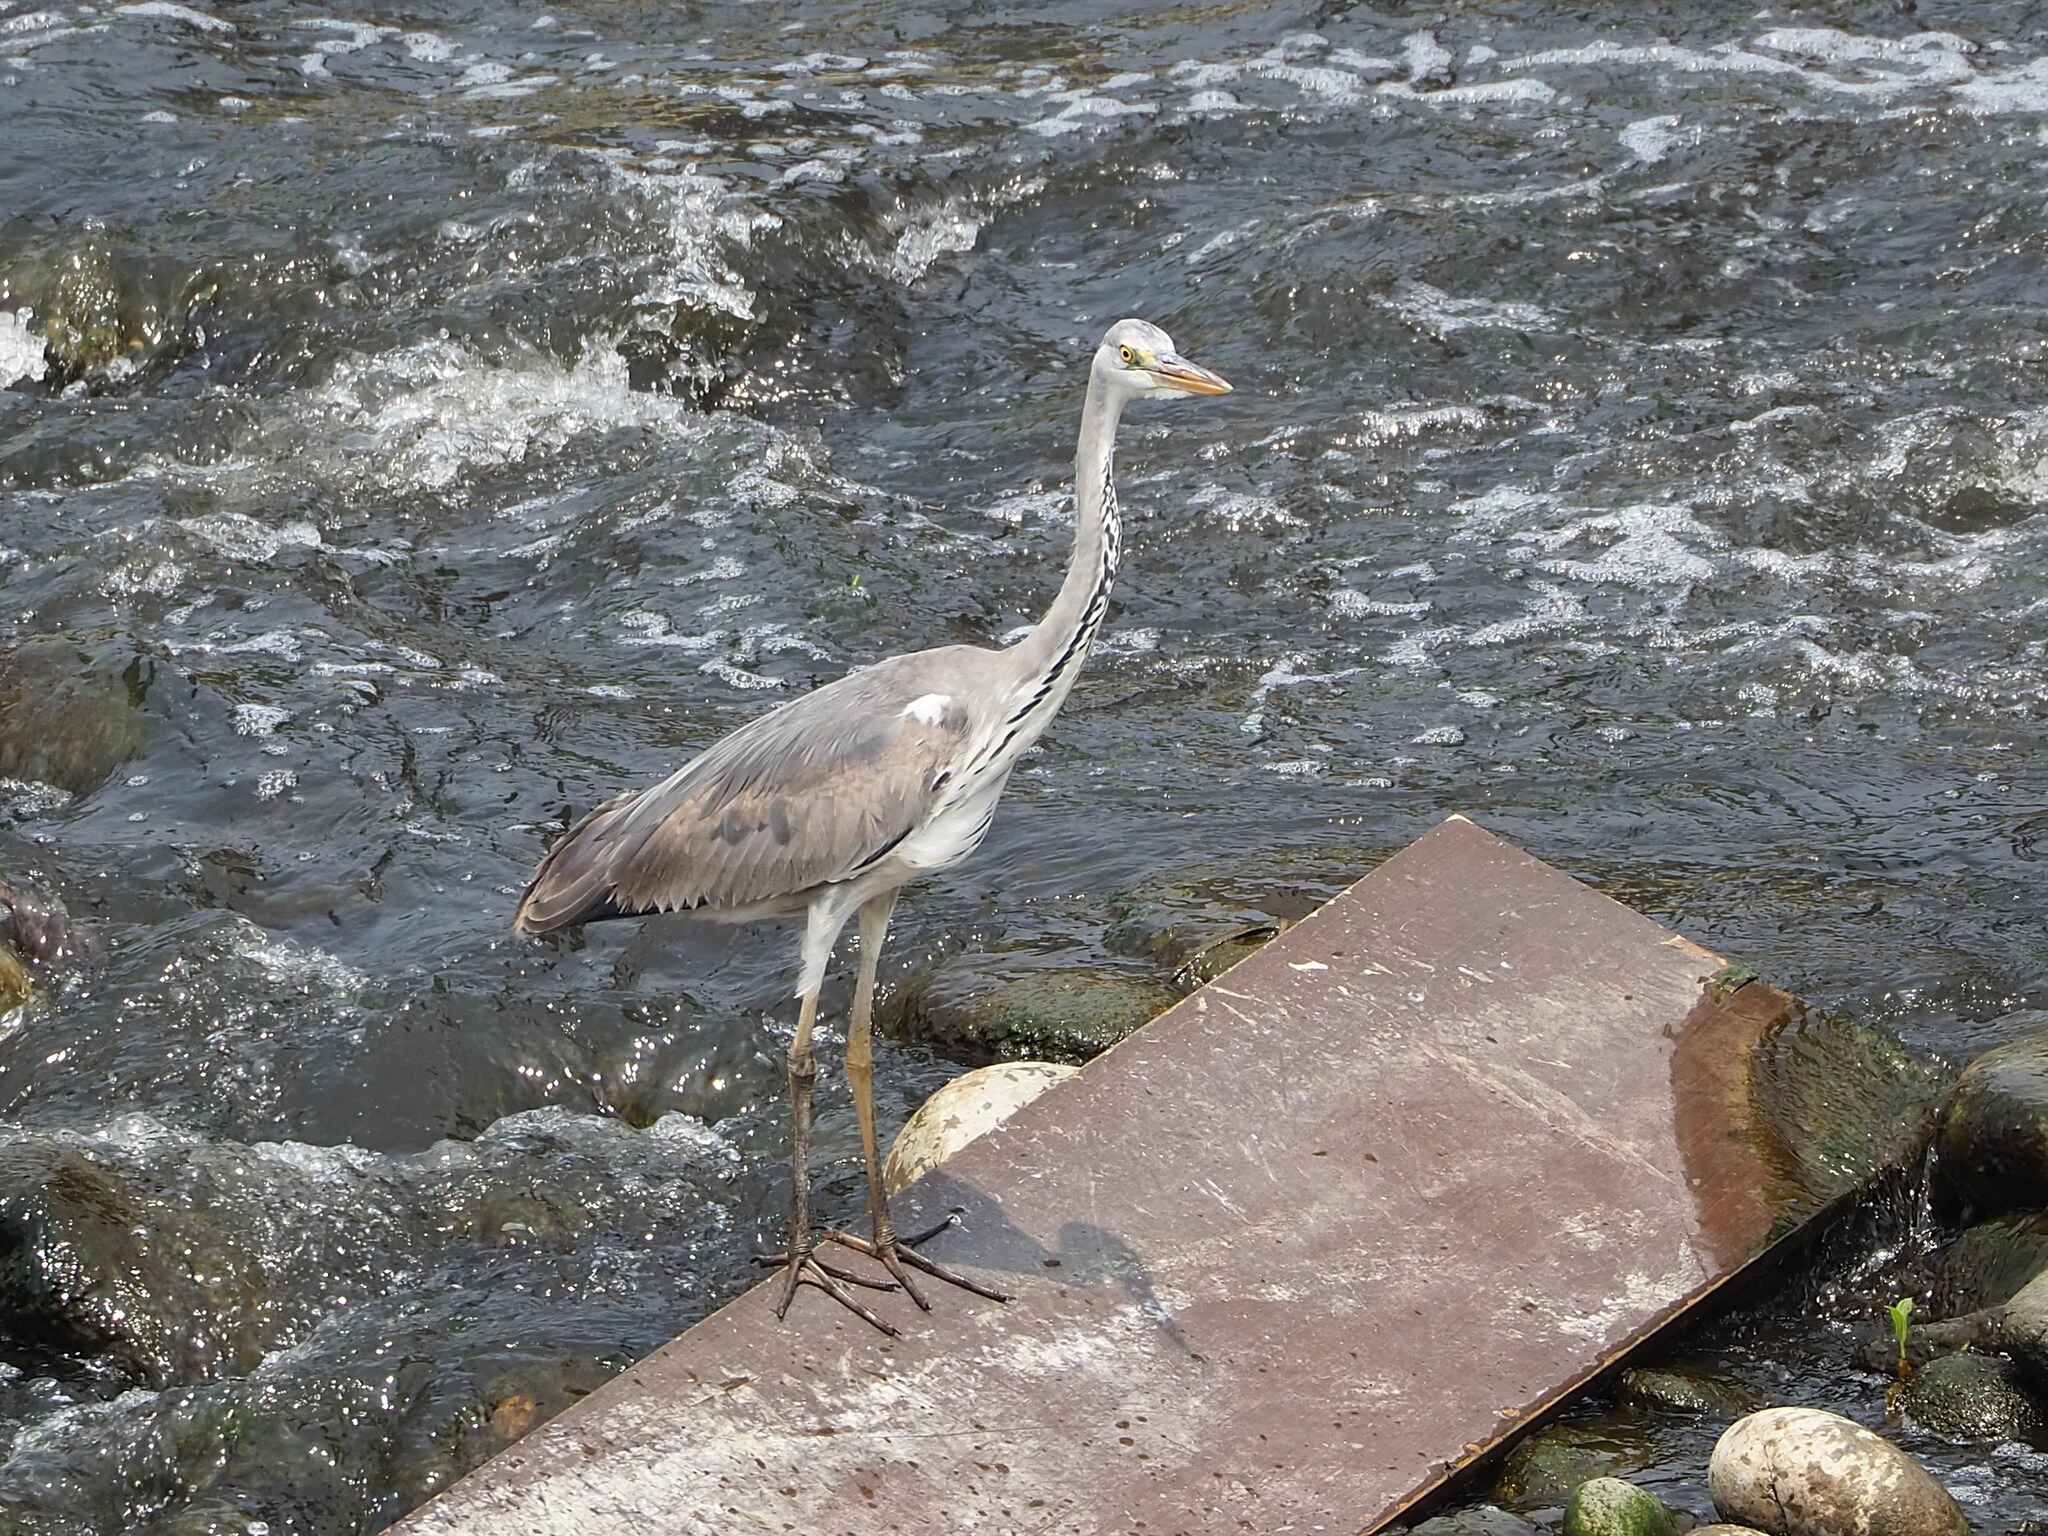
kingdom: Animalia
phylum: Chordata
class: Aves
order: Pelecaniformes
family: Ardeidae
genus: Ardea
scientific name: Ardea cinerea
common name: Grey heron
